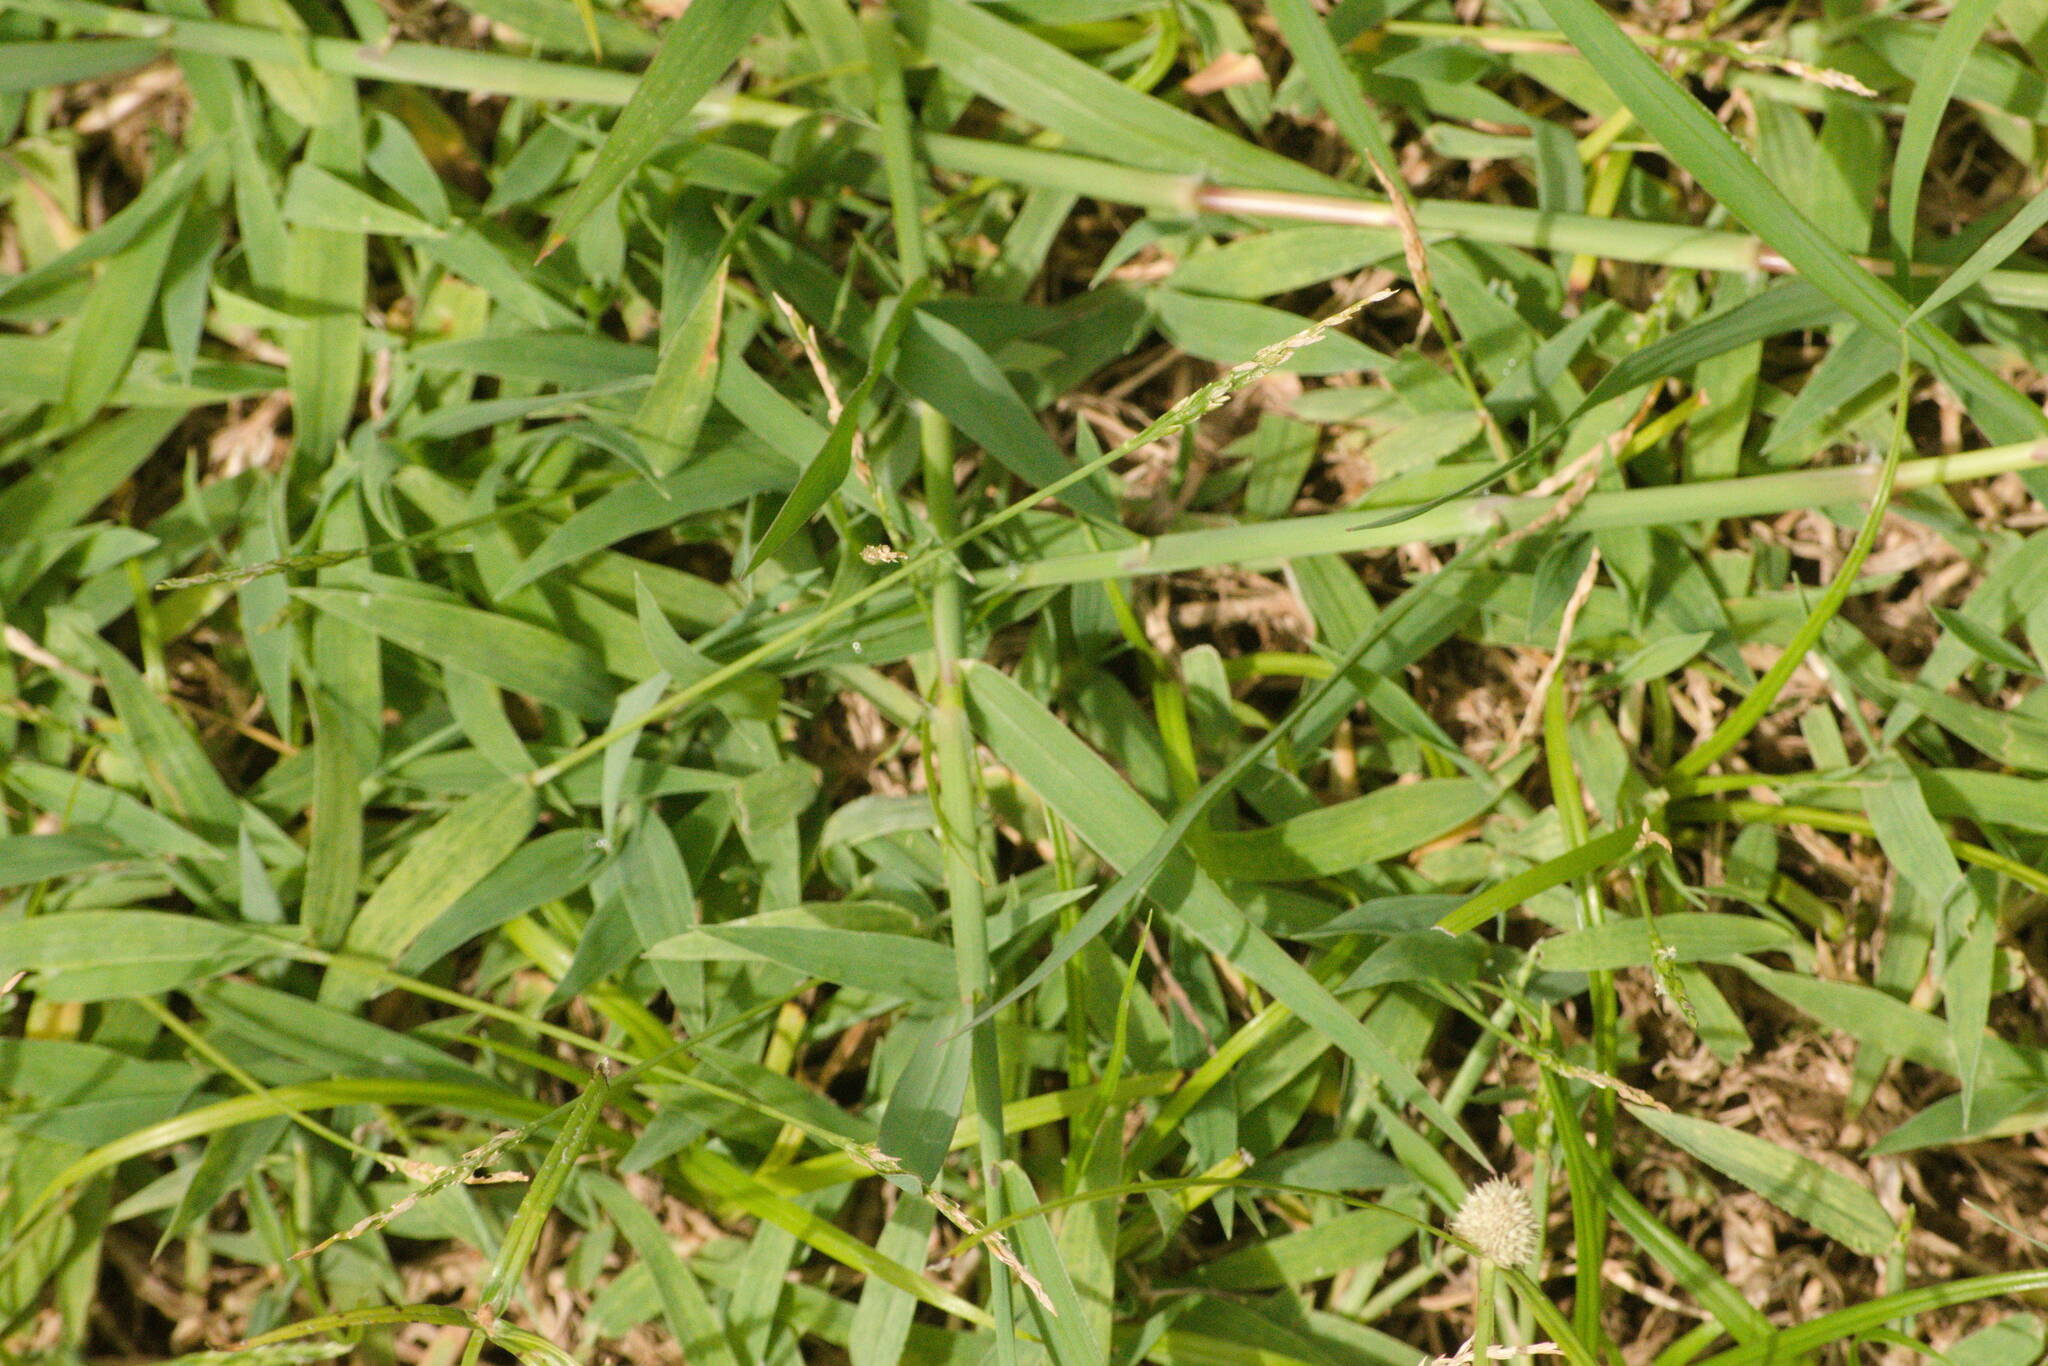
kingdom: Plantae
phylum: Tracheophyta
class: Liliopsida
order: Poales
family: Poaceae
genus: Digitaria
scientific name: Digitaria ciliaris
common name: Tropical finger-grass
